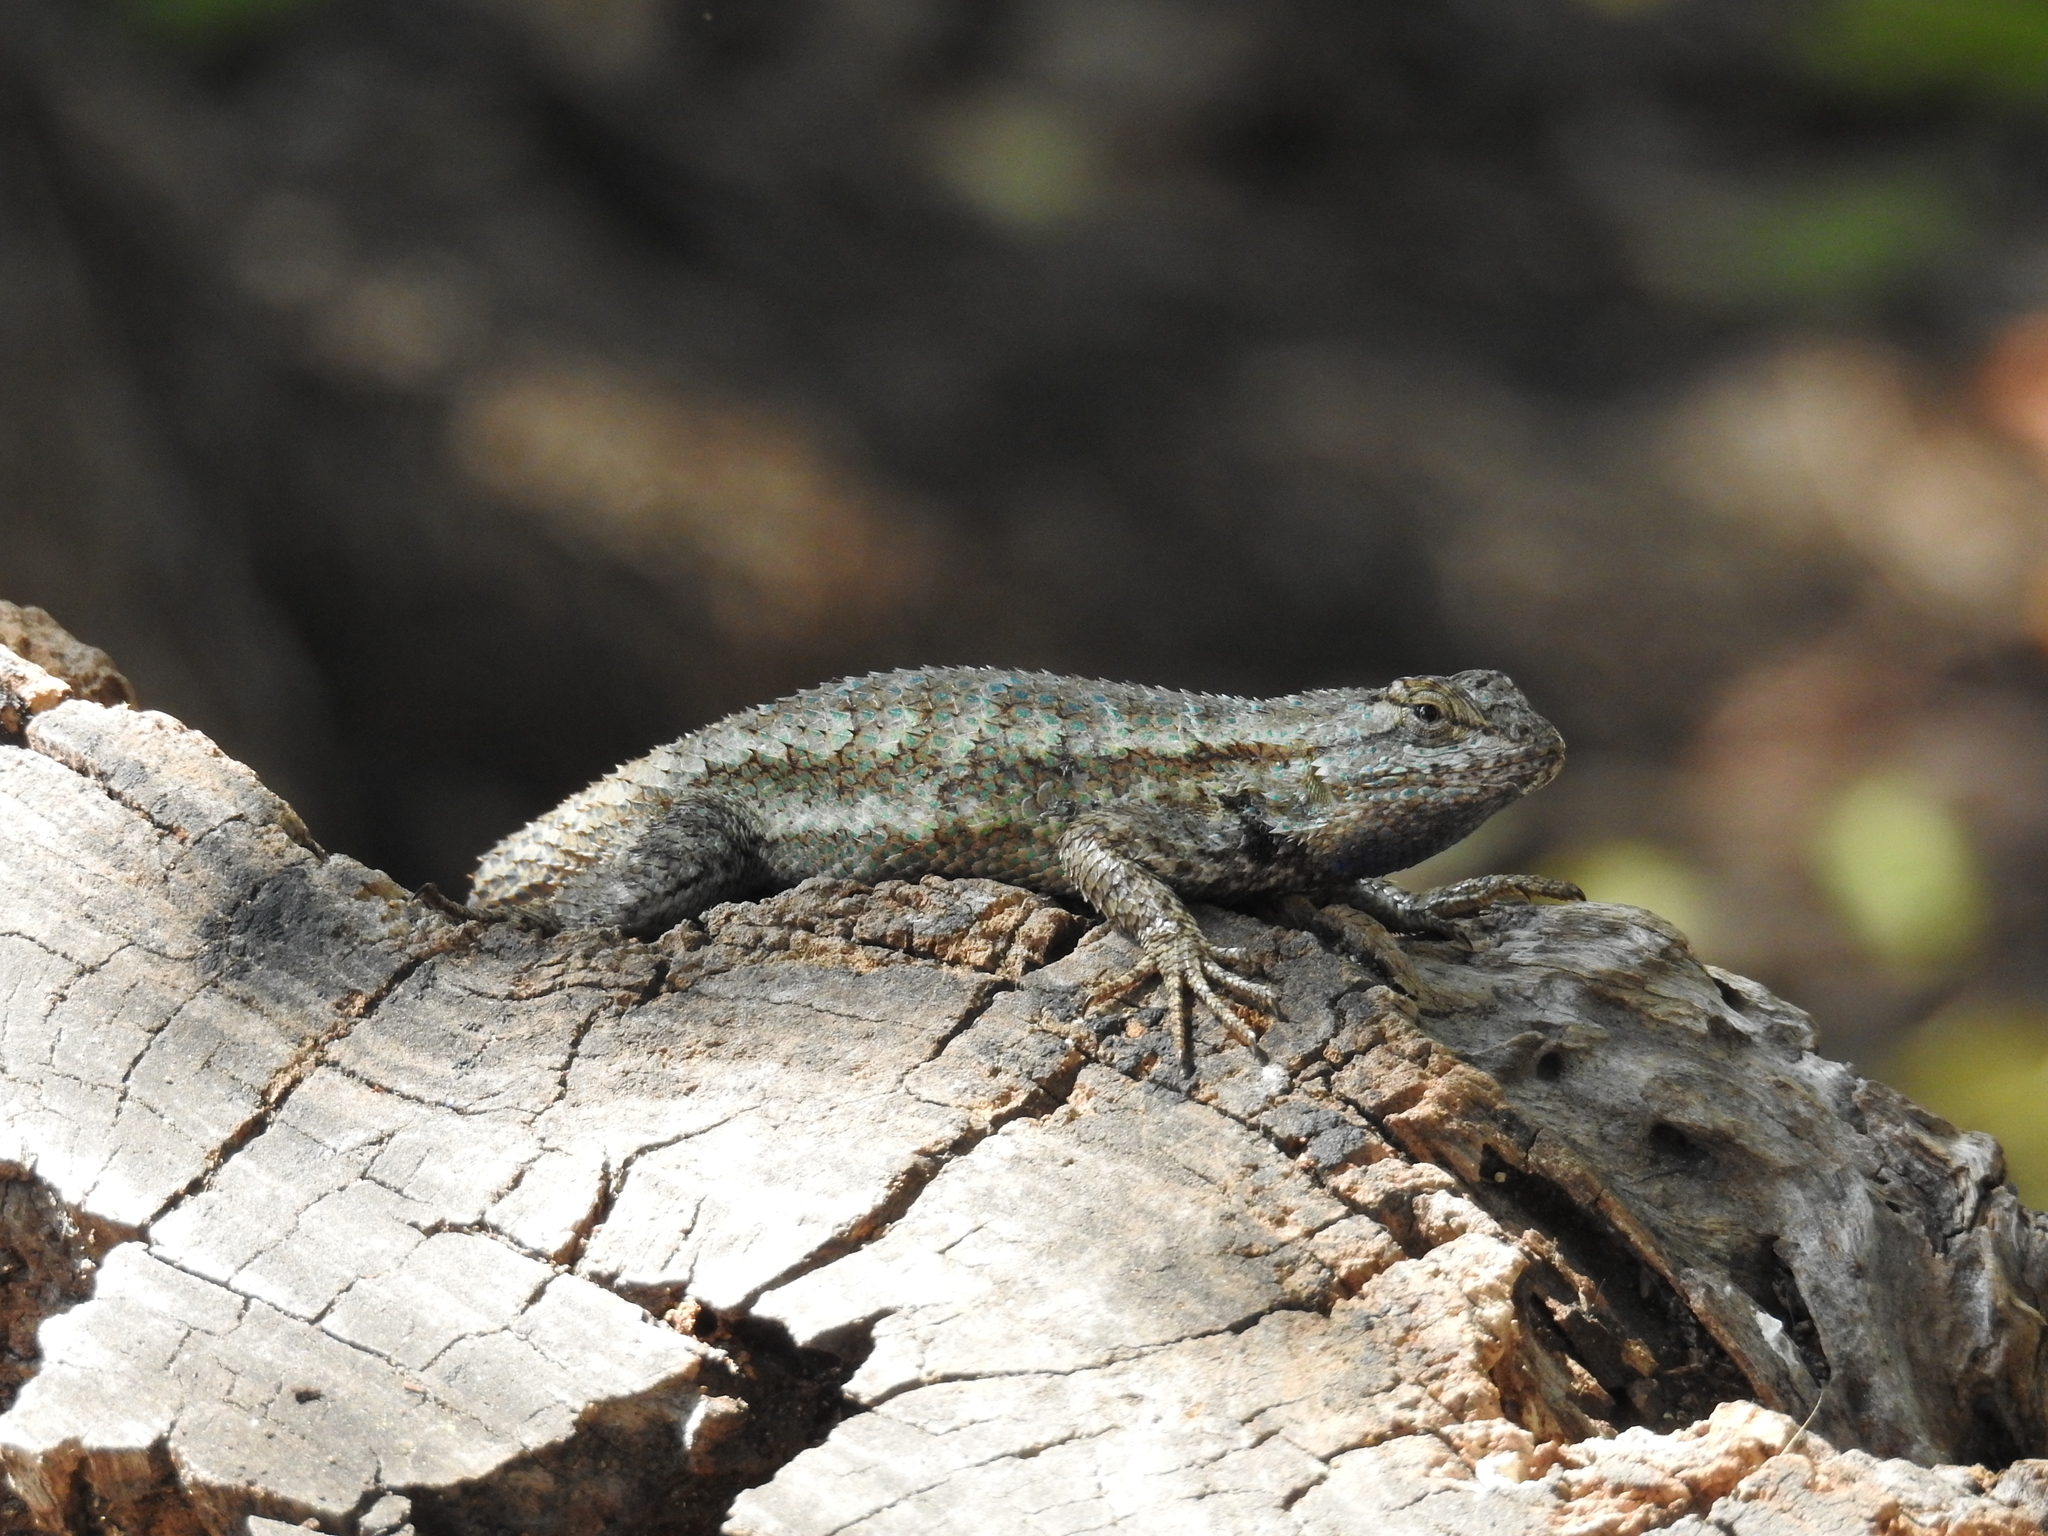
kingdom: Animalia
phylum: Chordata
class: Squamata
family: Phrynosomatidae
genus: Sceloporus
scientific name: Sceloporus occidentalis
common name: Western fence lizard
